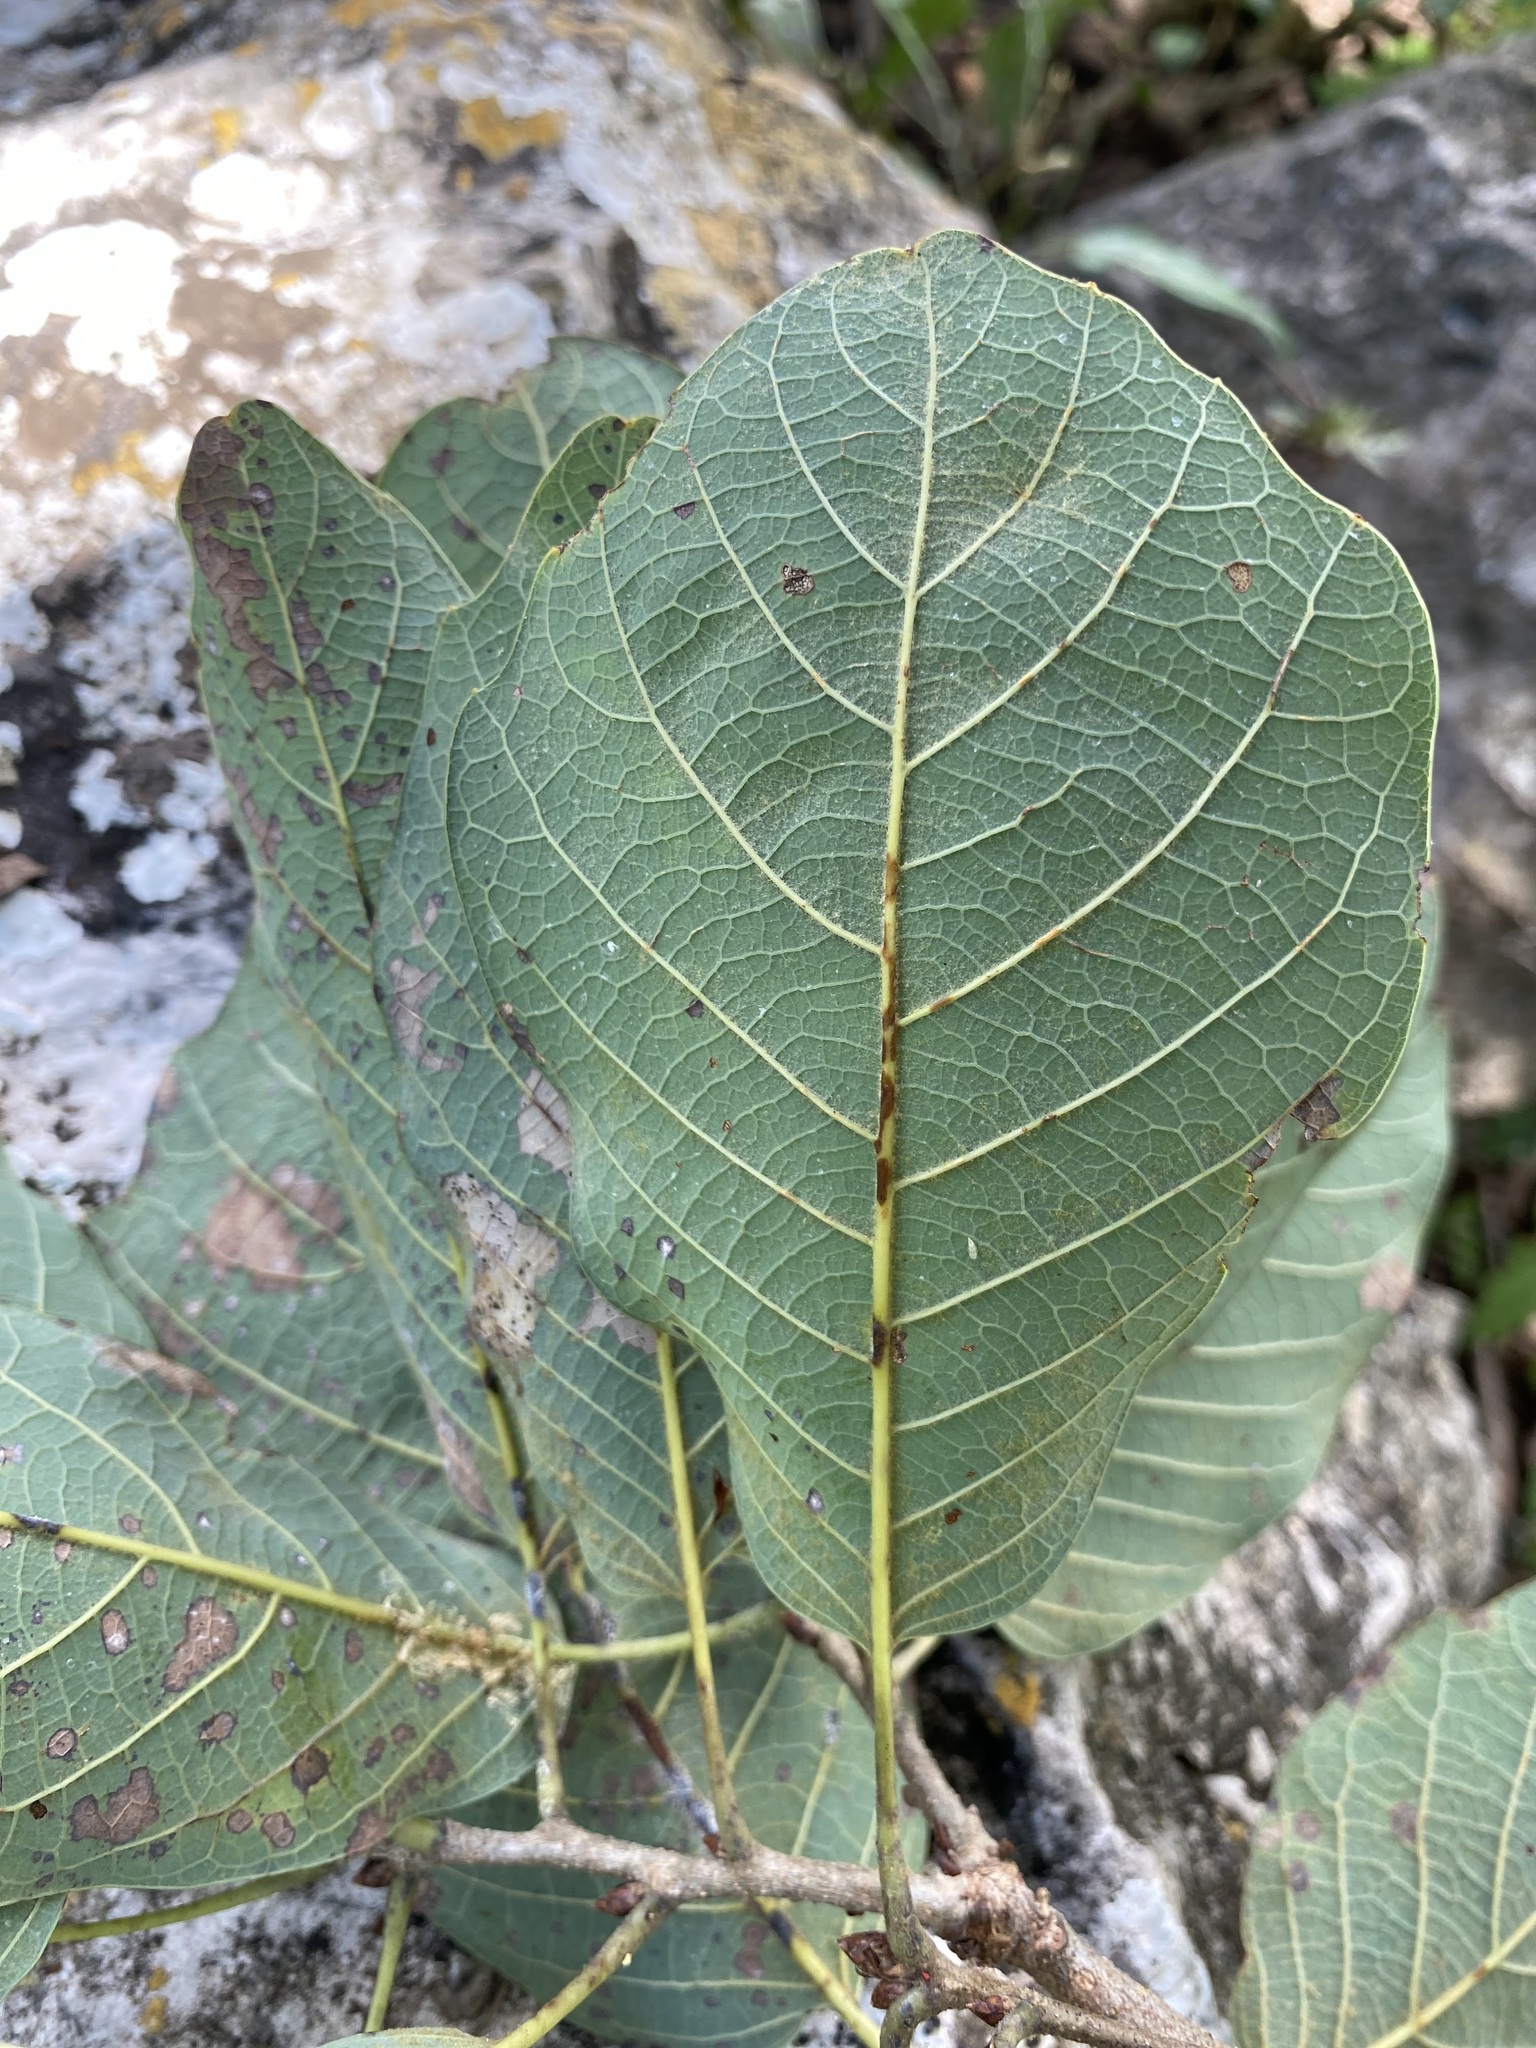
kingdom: Plantae
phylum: Tracheophyta
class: Magnoliopsida
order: Fagales
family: Fagaceae
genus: Quercus
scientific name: Quercus polymorpha
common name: Mexican white oak
